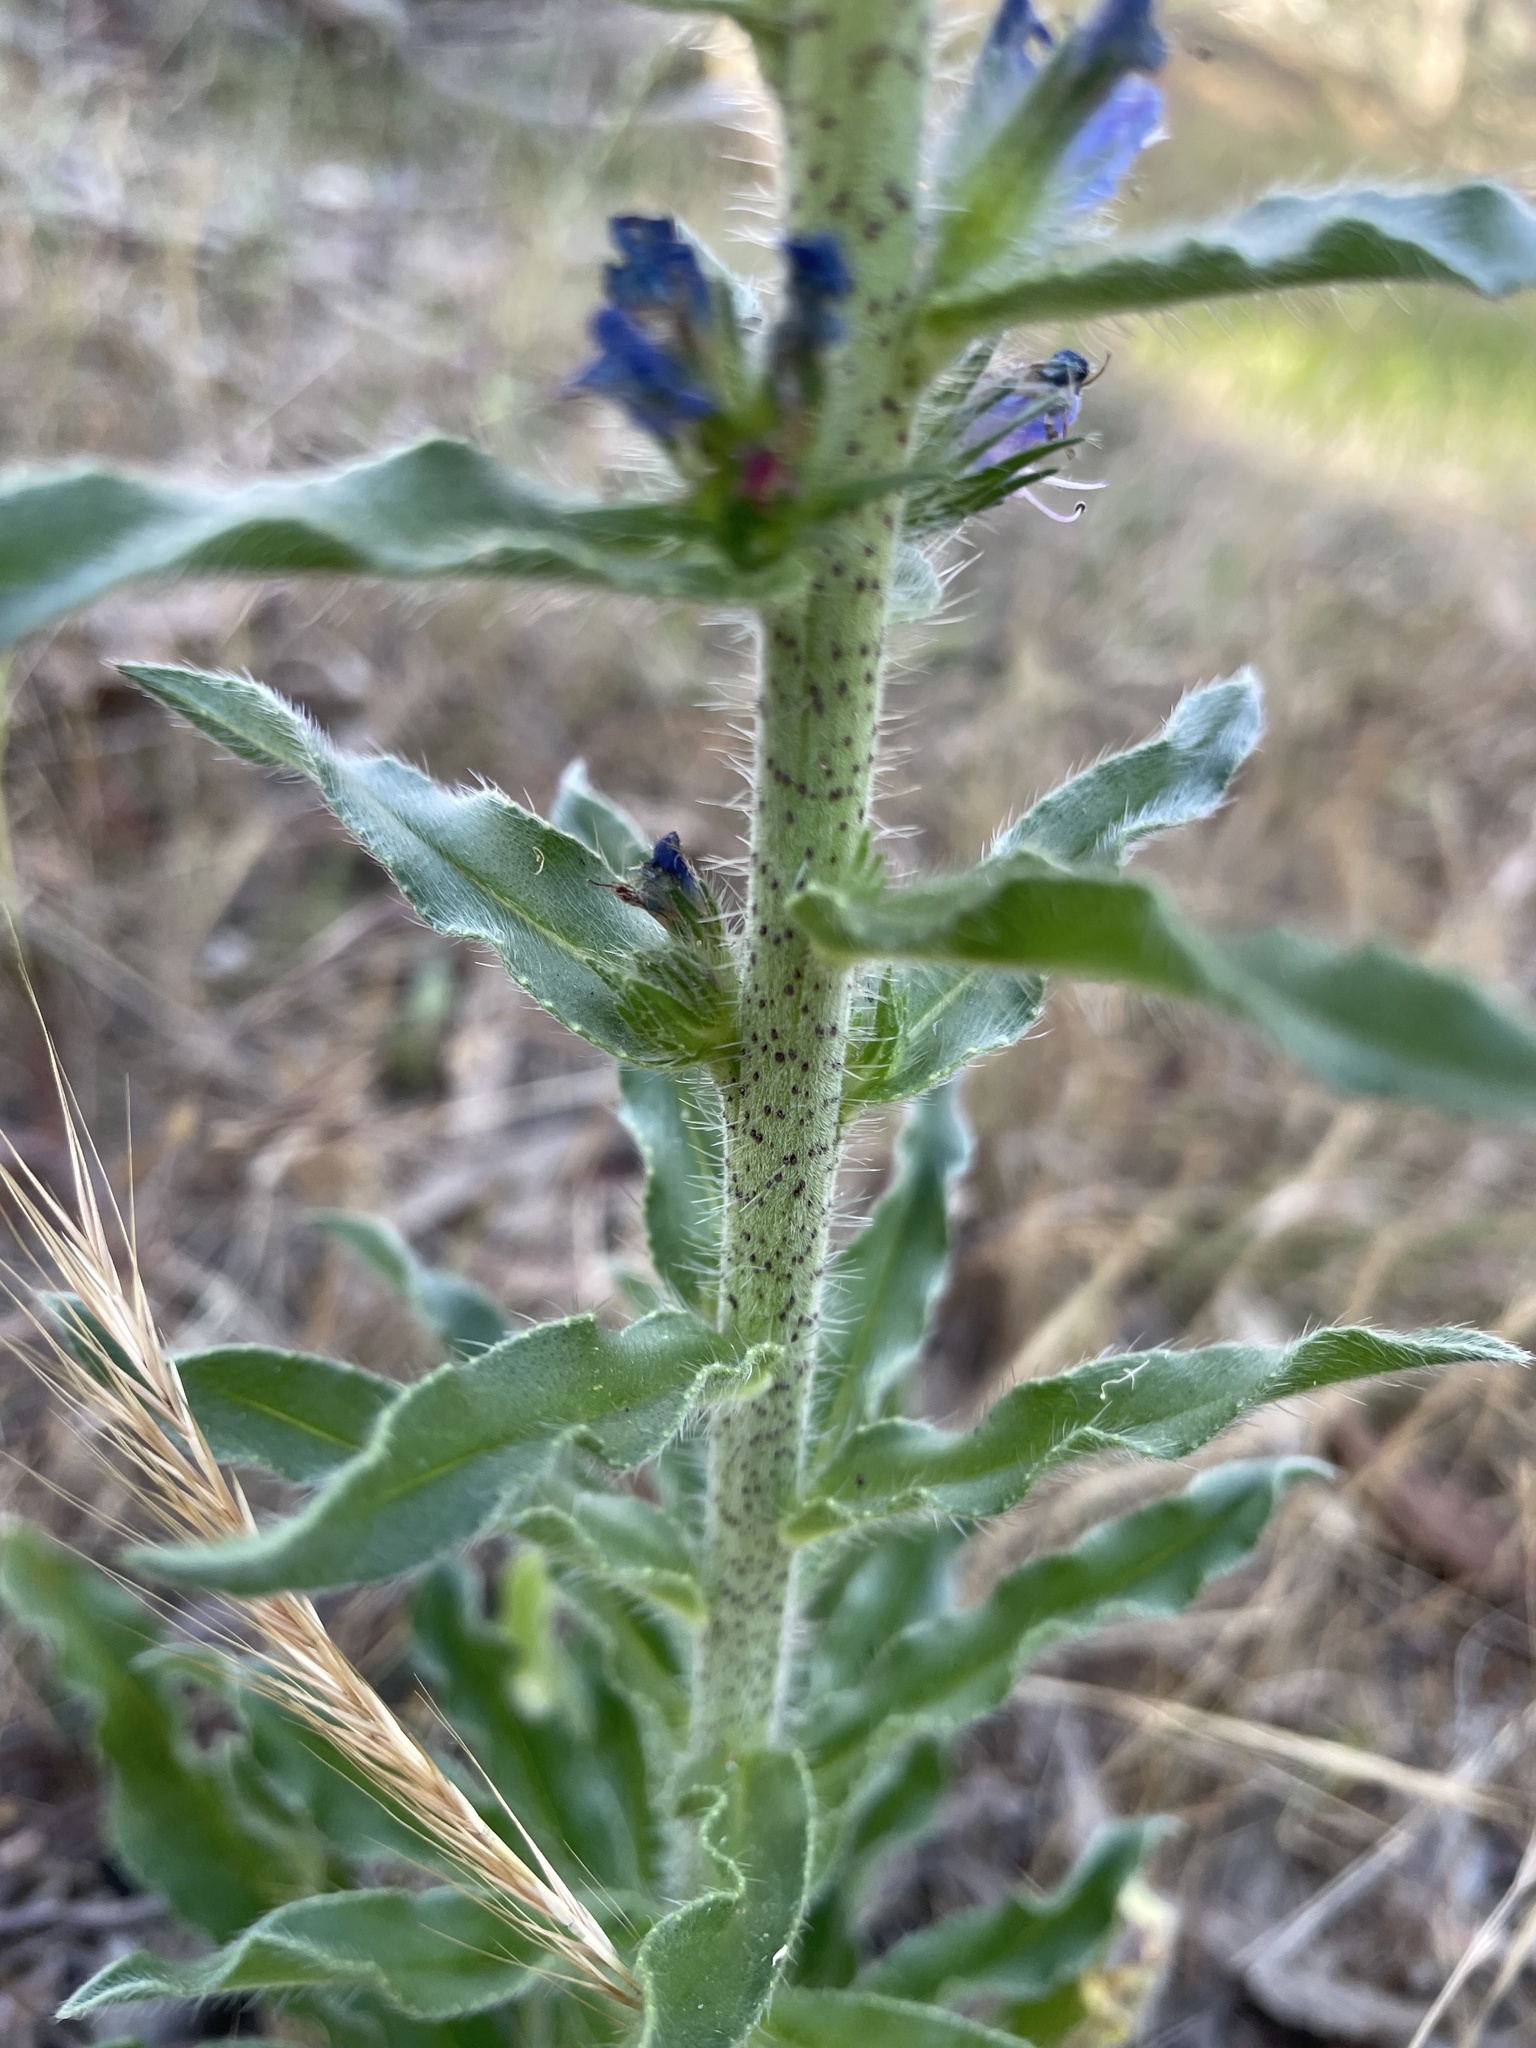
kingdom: Plantae
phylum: Tracheophyta
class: Magnoliopsida
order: Boraginales
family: Boraginaceae
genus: Echium
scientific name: Echium vulgare
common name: Common viper's bugloss
